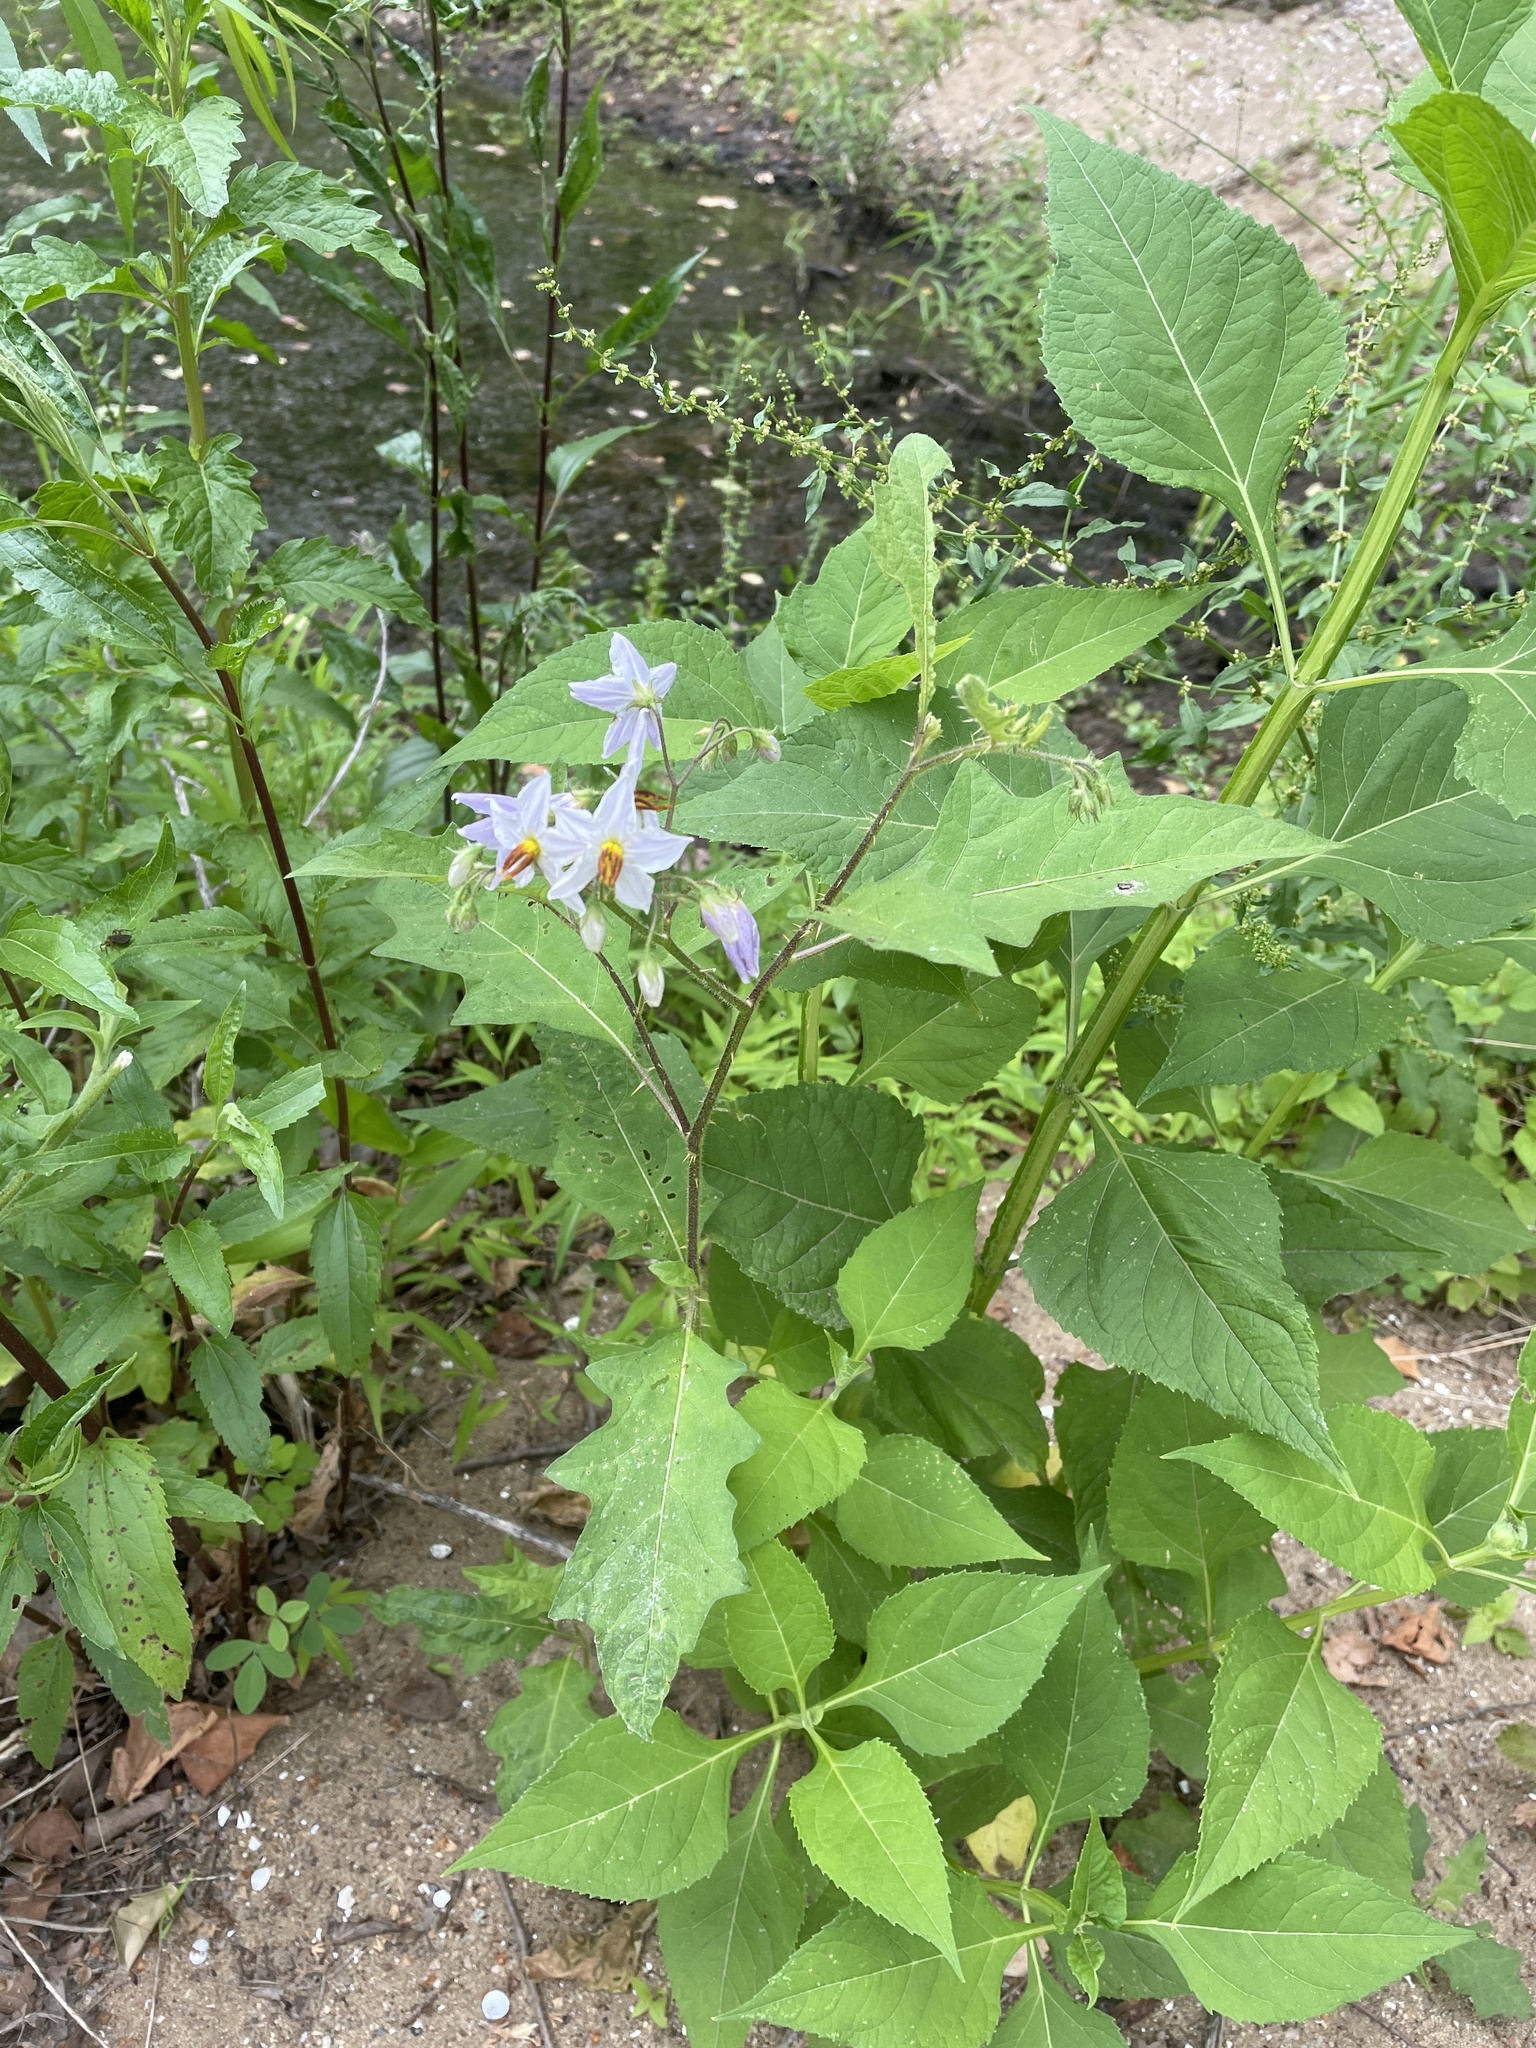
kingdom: Plantae
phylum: Tracheophyta
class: Magnoliopsida
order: Solanales
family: Solanaceae
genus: Solanum
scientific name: Solanum carolinense
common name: Horse-nettle
